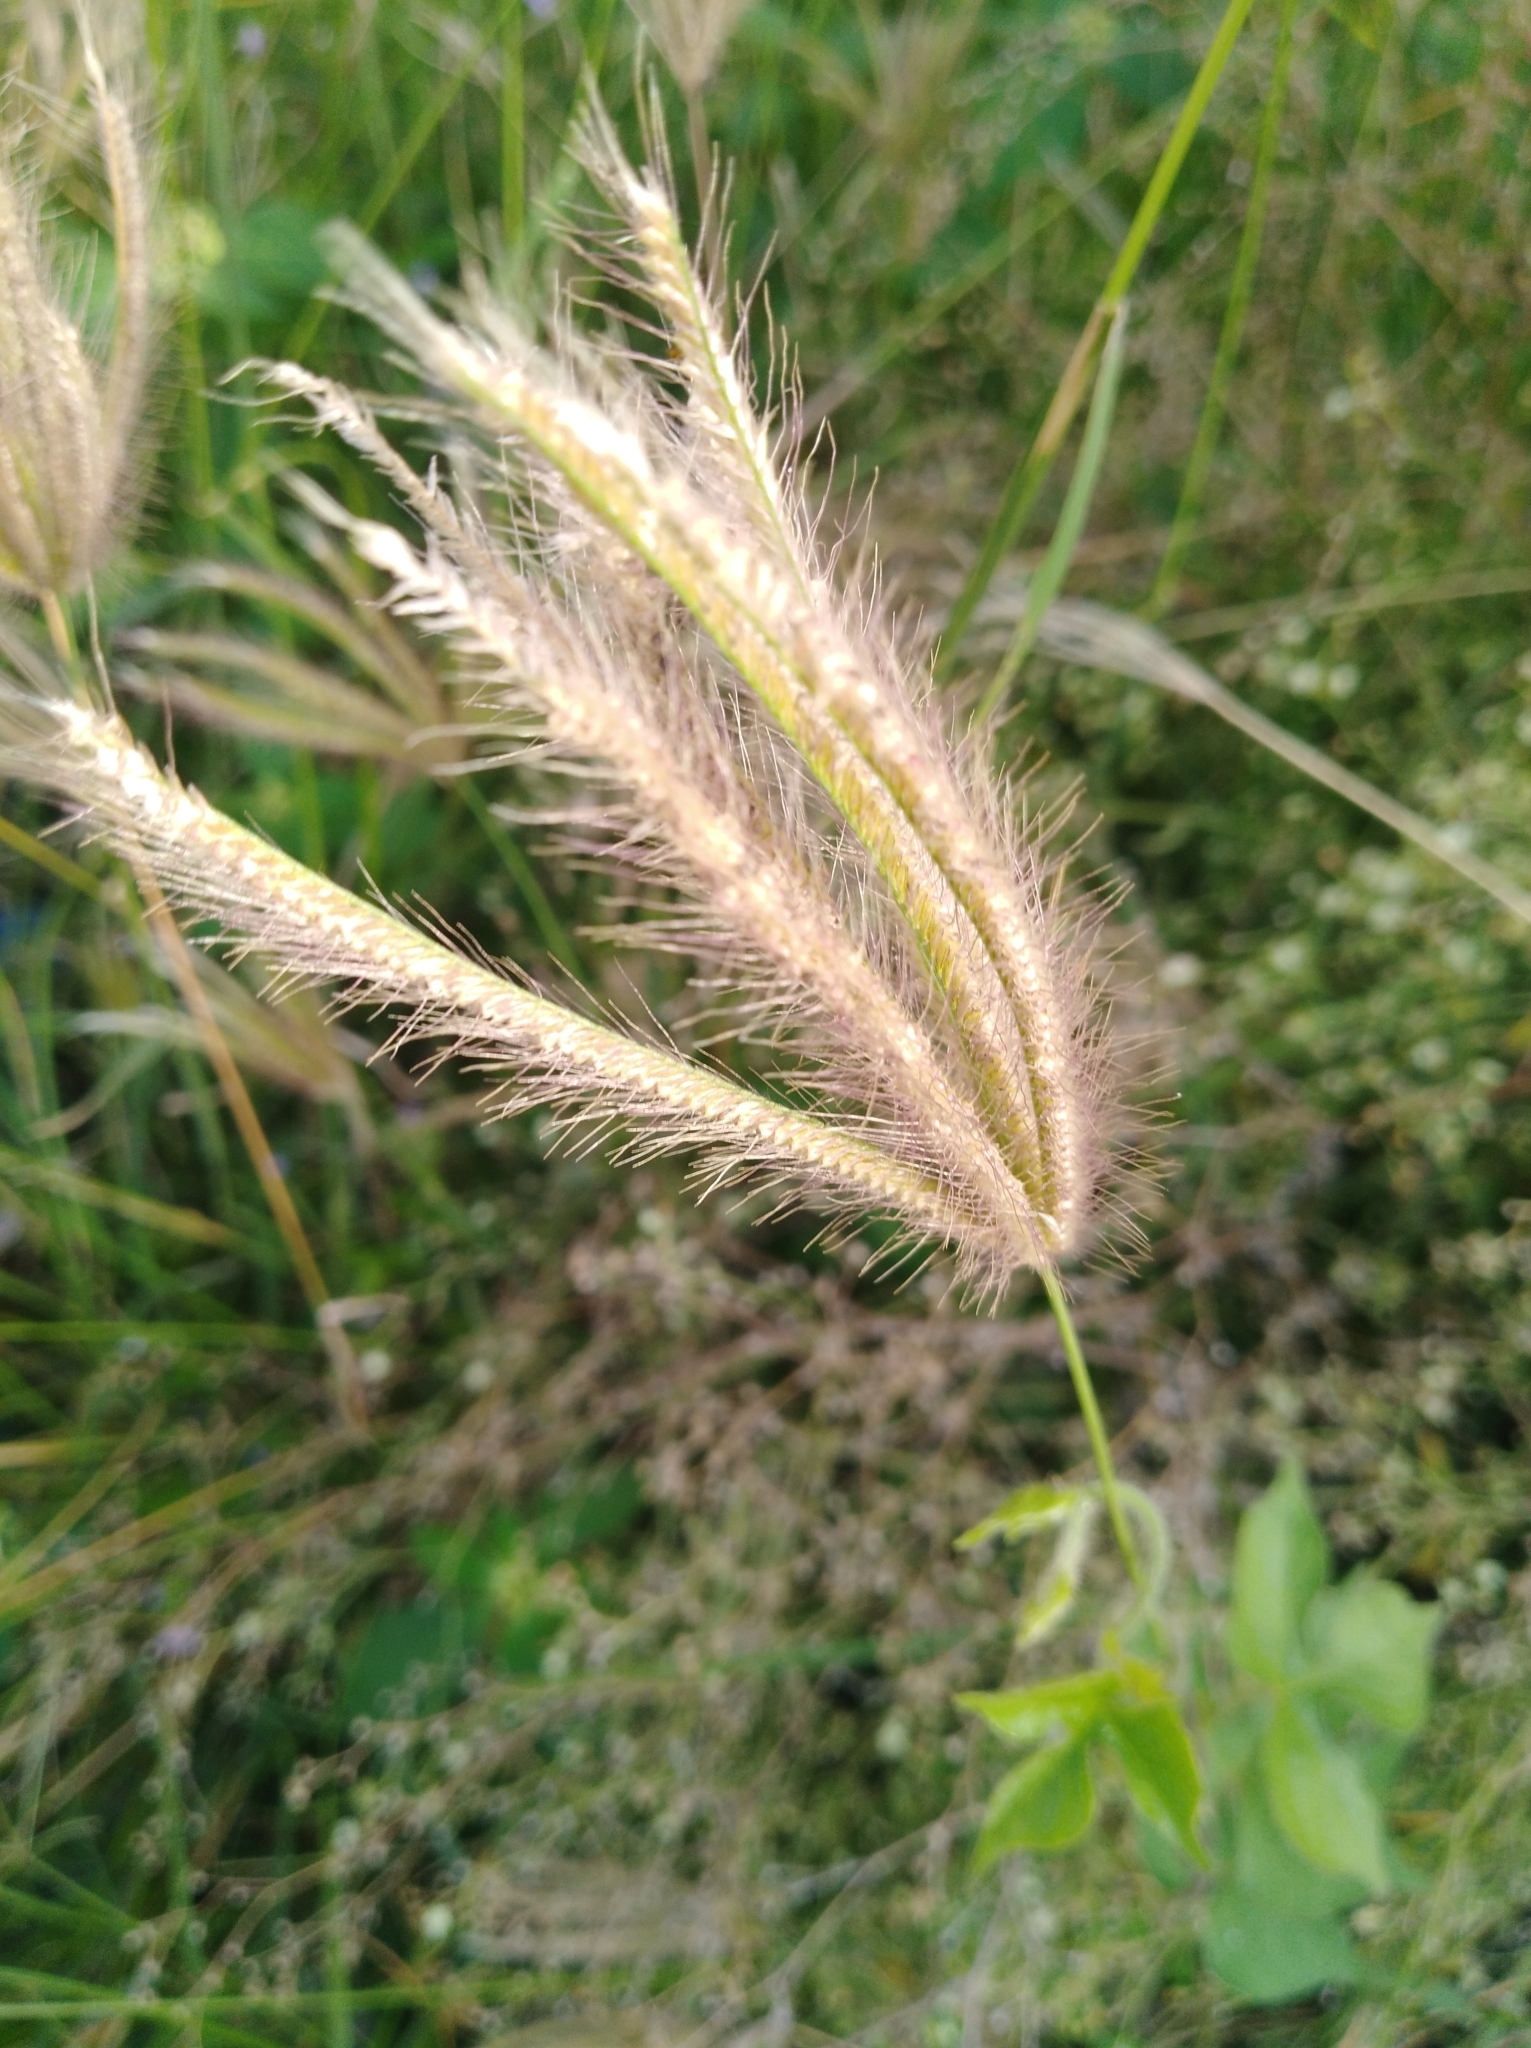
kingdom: Plantae
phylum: Tracheophyta
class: Liliopsida
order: Poales
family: Poaceae
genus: Chloris
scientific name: Chloris barbata
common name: Swollen fingergrass
